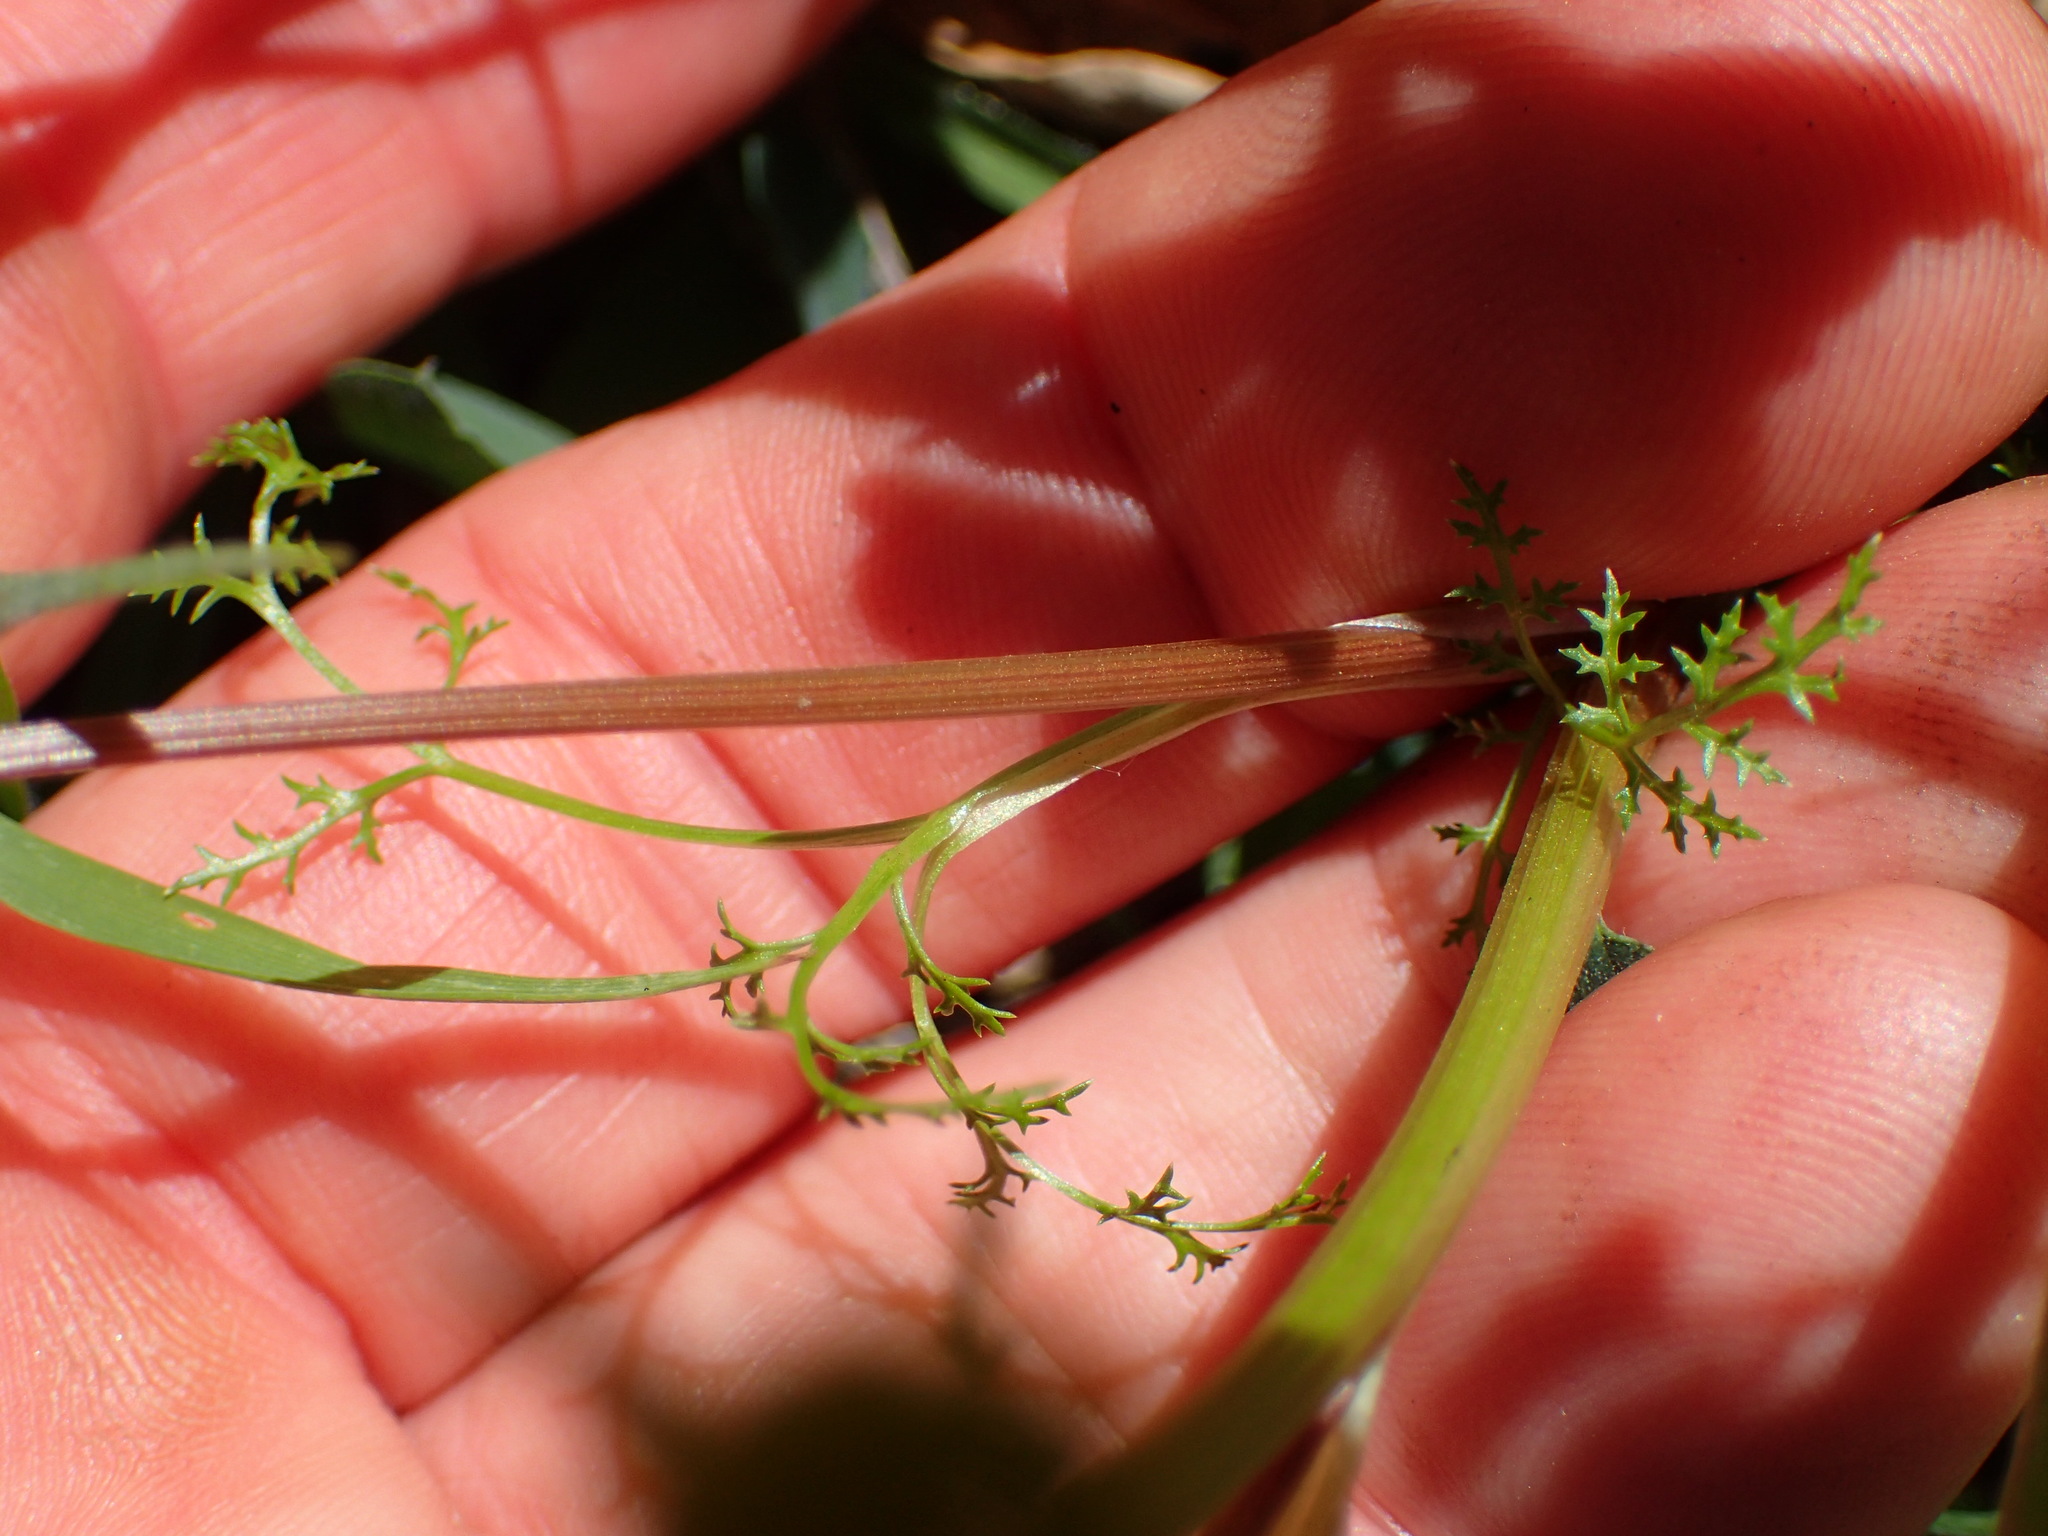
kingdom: Plantae
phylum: Tracheophyta
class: Magnoliopsida
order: Apiales
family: Apiaceae
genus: Sanicula
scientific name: Sanicula tuberosa
